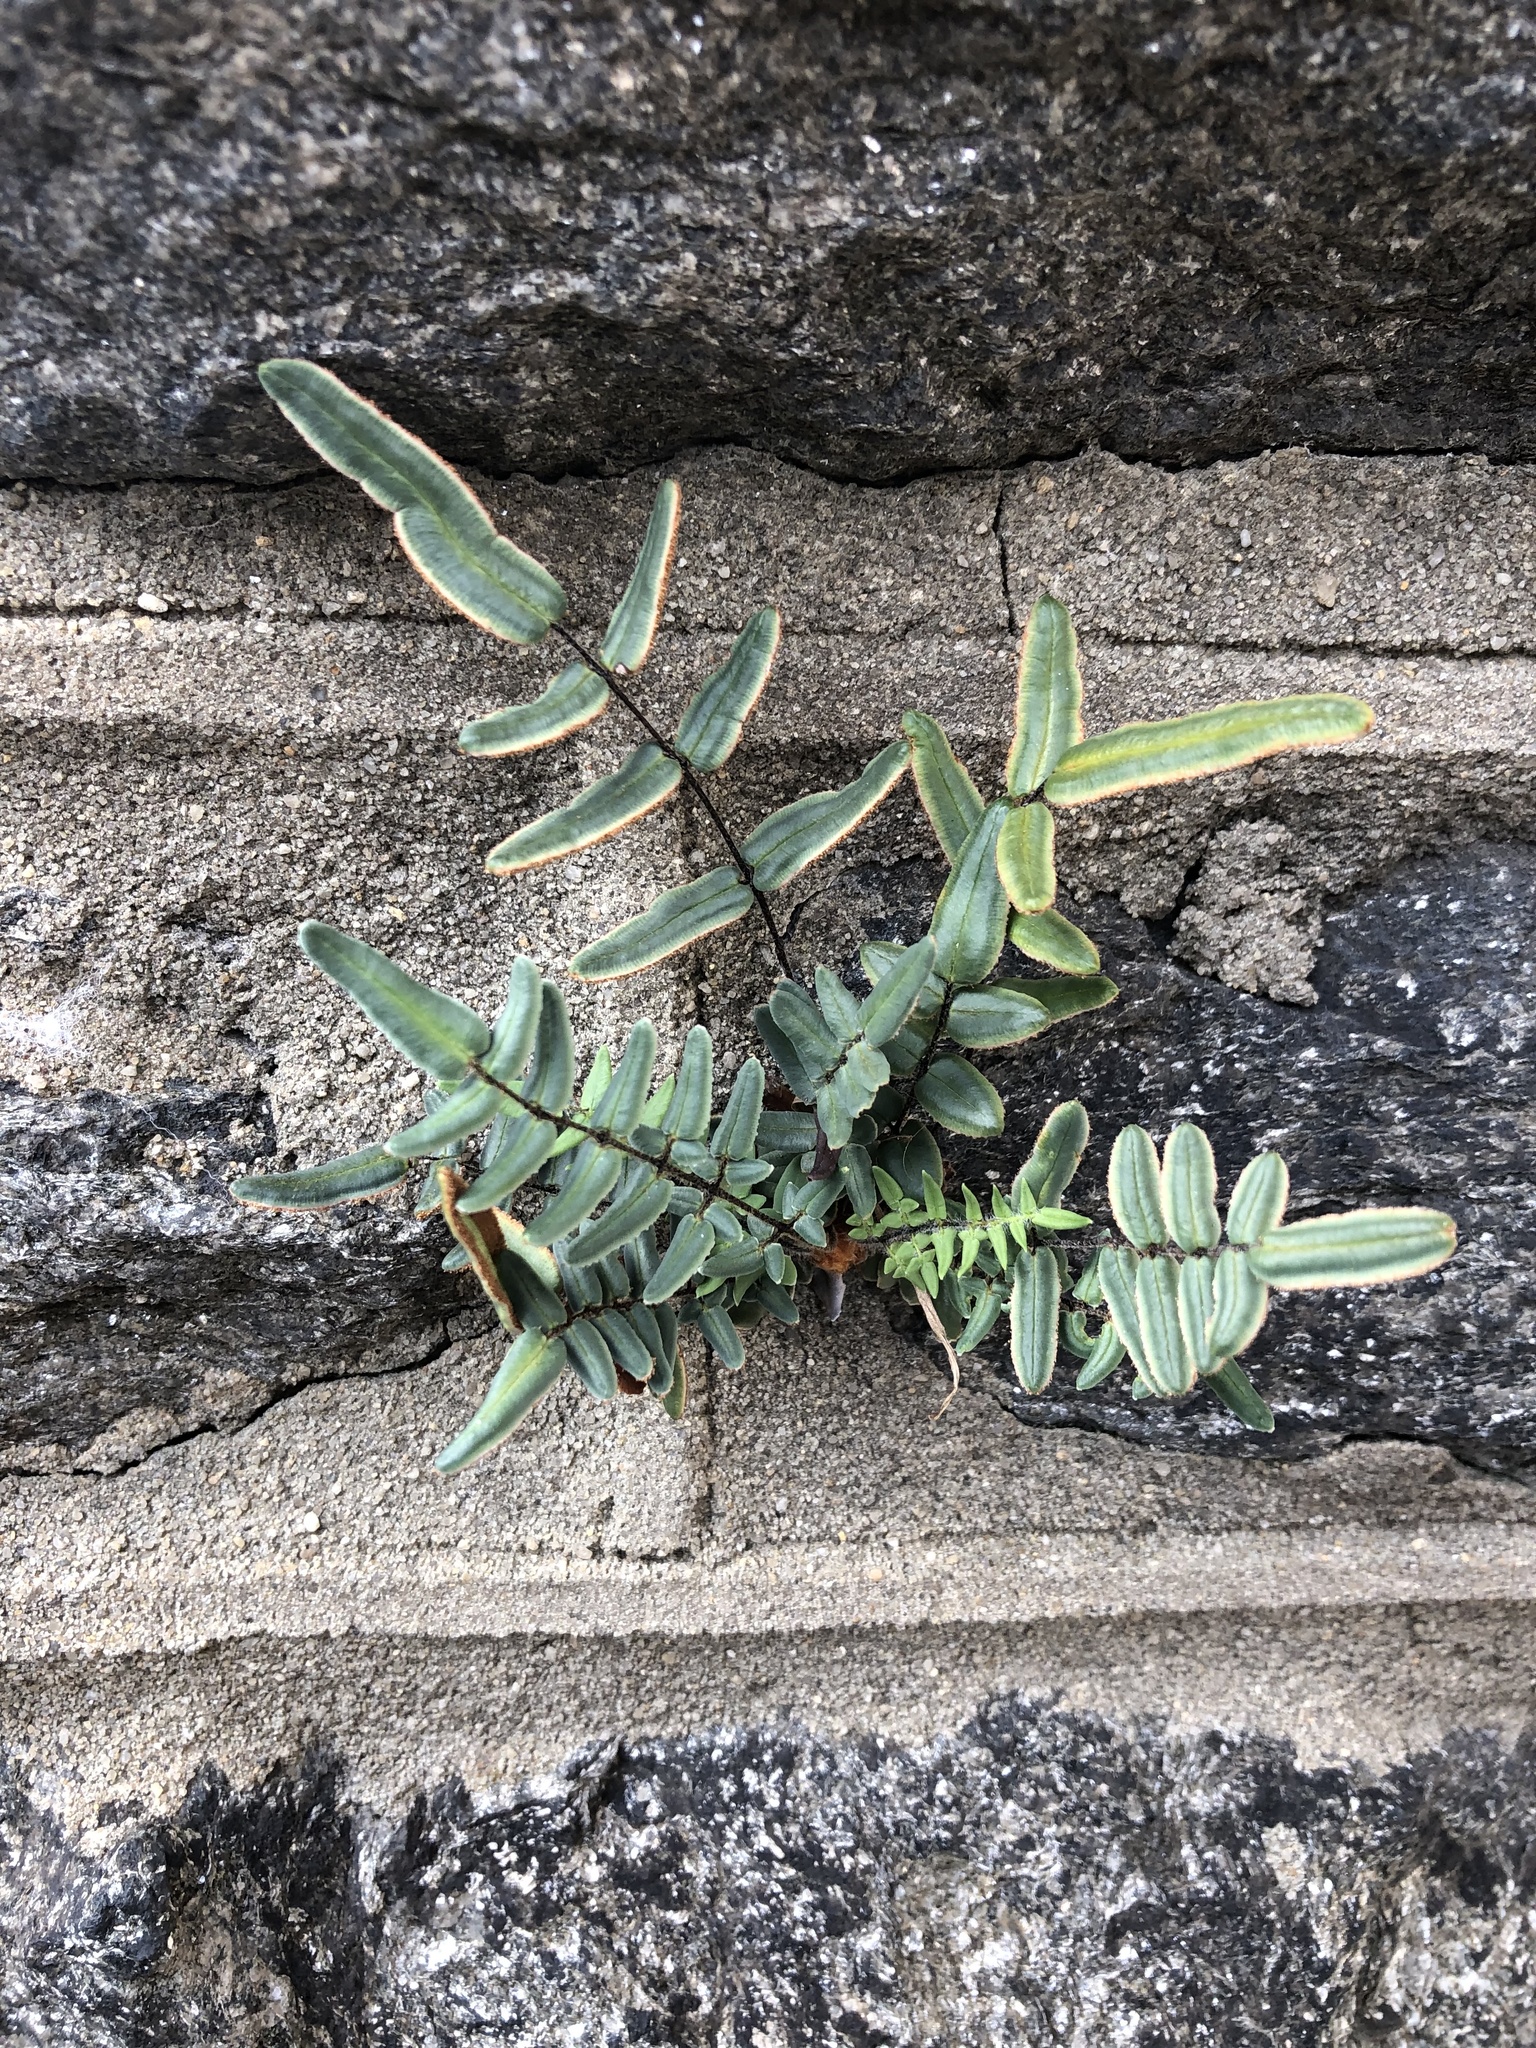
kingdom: Plantae
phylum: Tracheophyta
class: Polypodiopsida
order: Polypodiales
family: Pteridaceae
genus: Pellaea
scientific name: Pellaea atropurpurea
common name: Hairy cliffbrake
